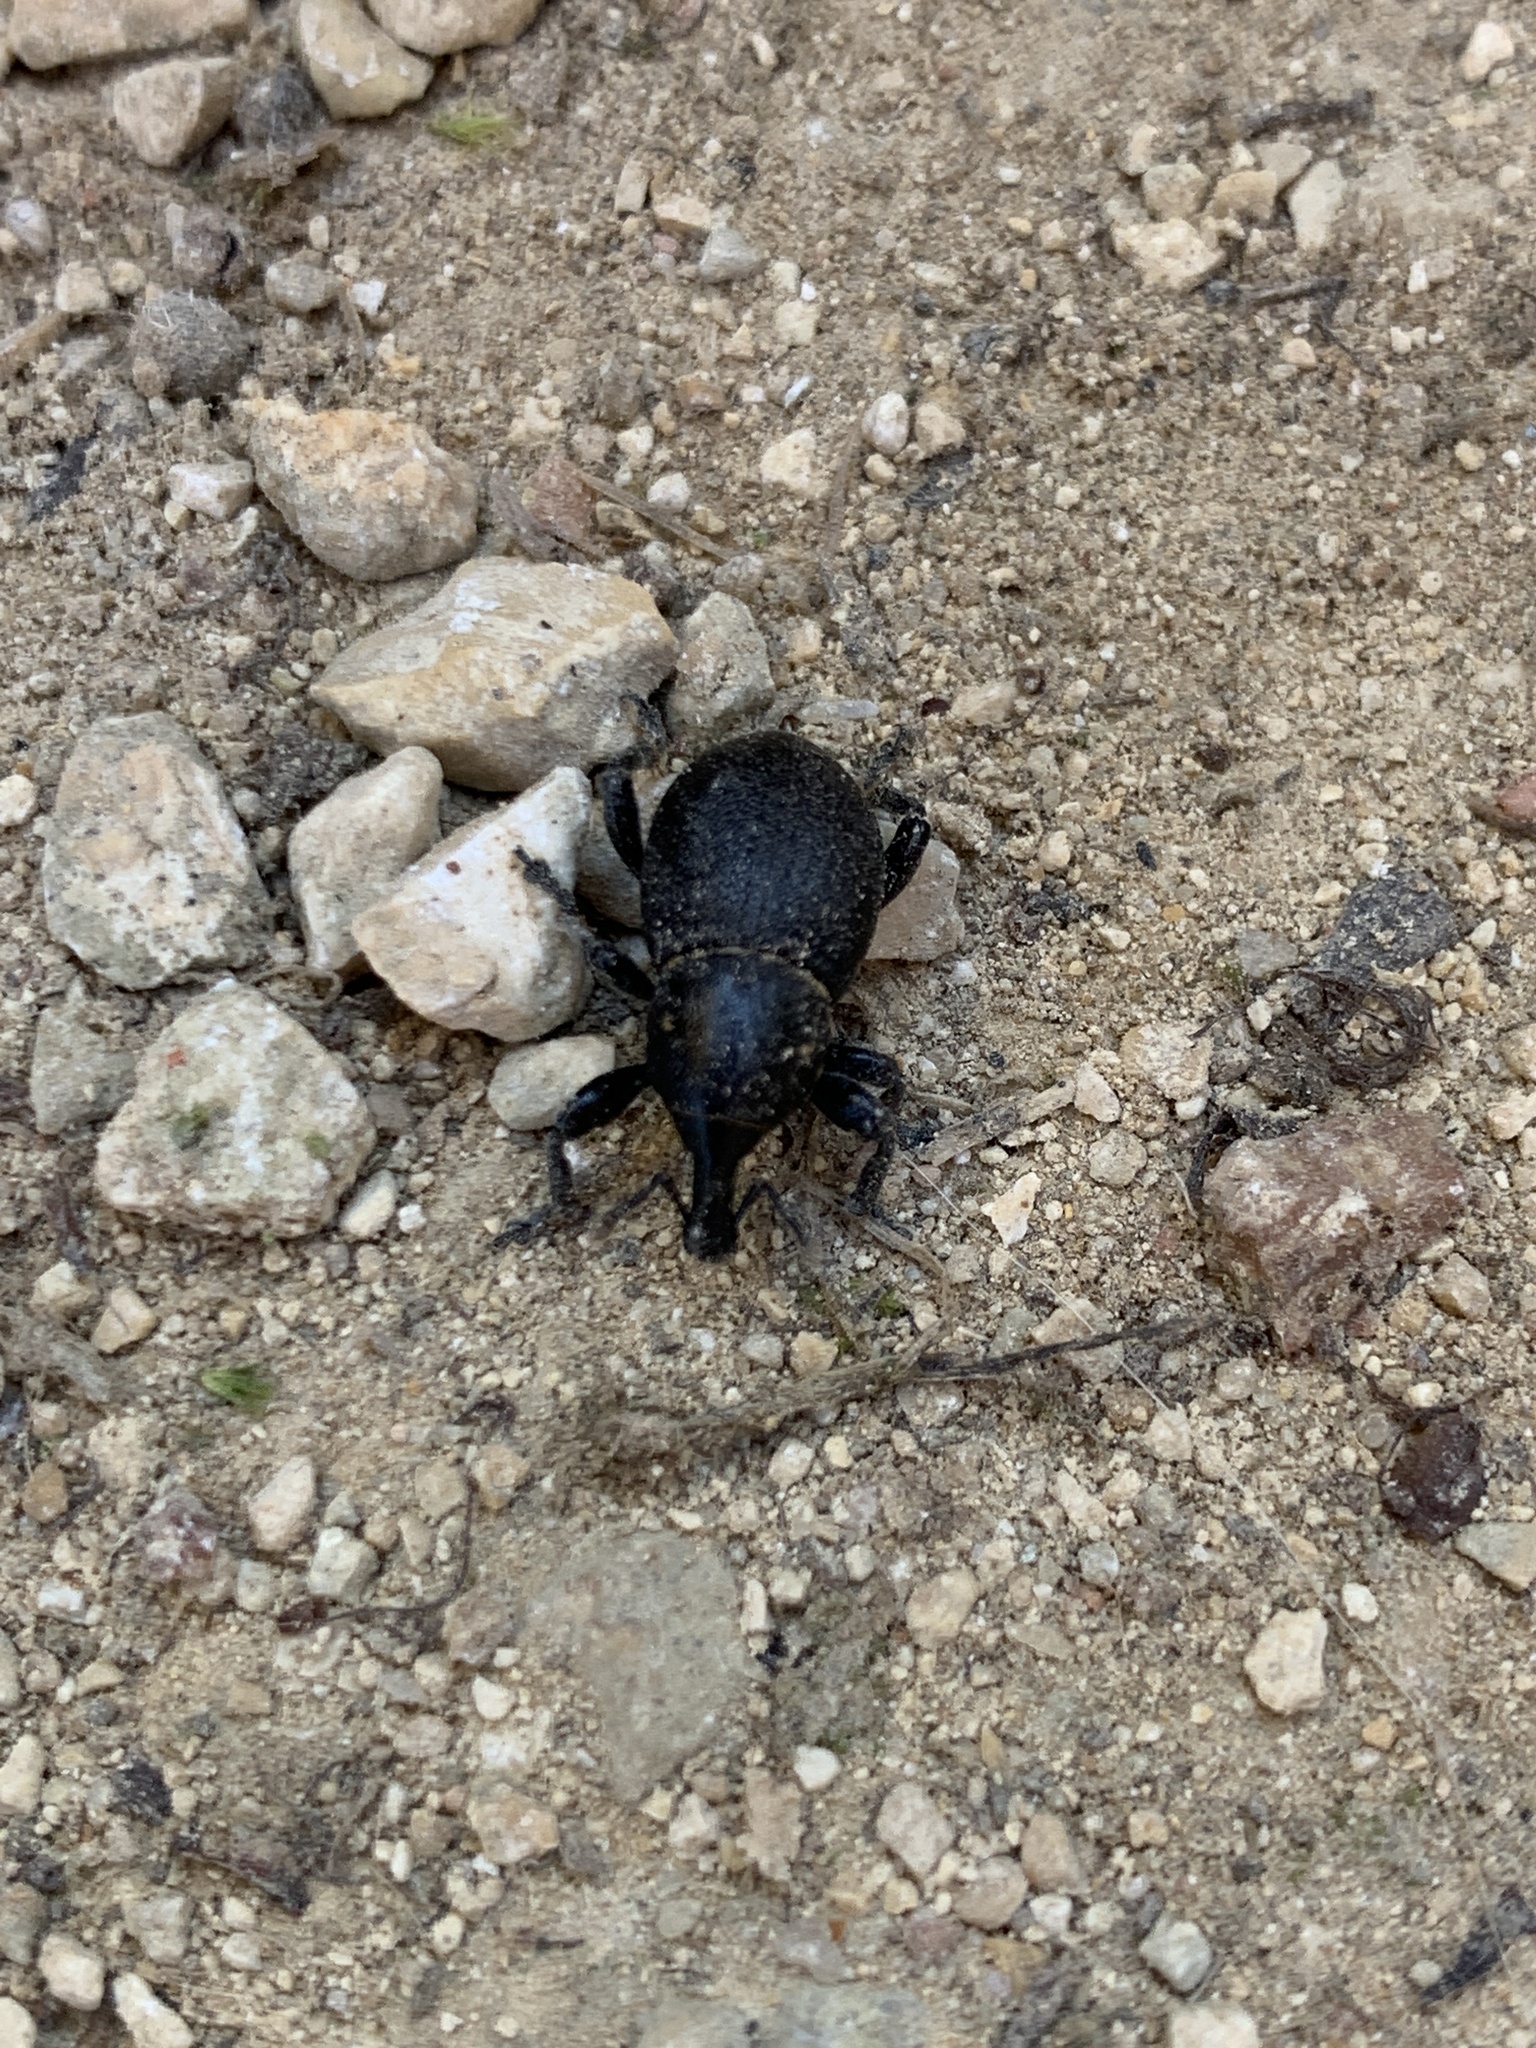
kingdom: Animalia
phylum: Arthropoda
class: Insecta
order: Coleoptera
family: Curculionidae
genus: Liparus
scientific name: Liparus coronatus
